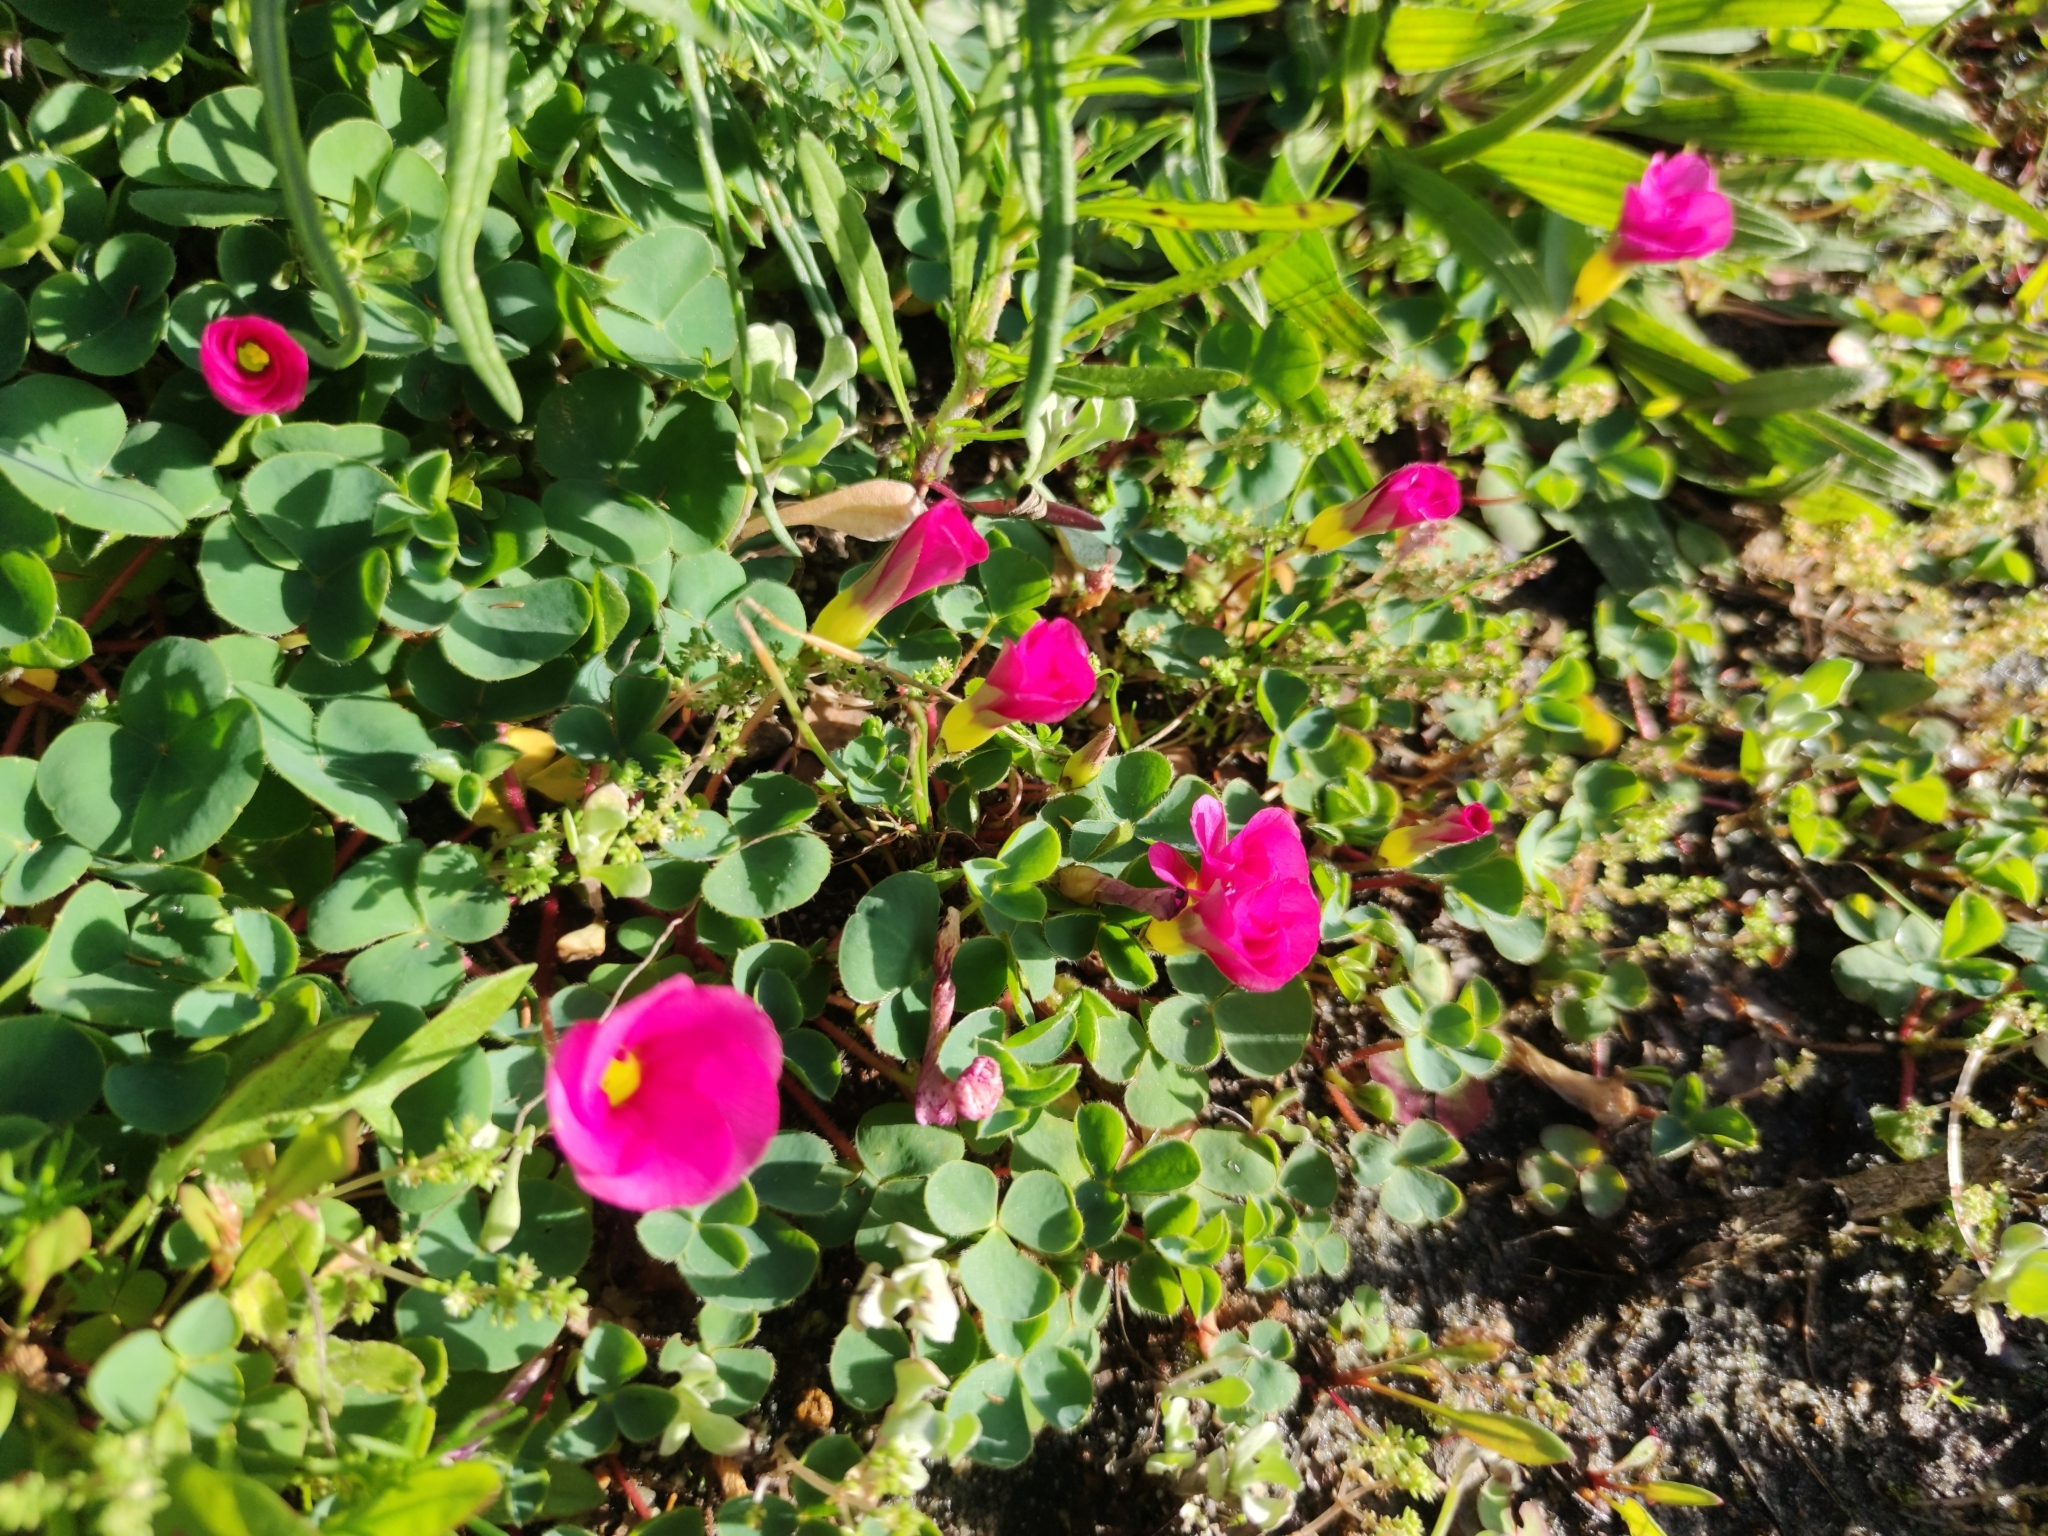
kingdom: Plantae
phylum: Tracheophyta
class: Magnoliopsida
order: Oxalidales
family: Oxalidaceae
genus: Oxalis
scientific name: Oxalis purpurea
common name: Purple woodsorrel
